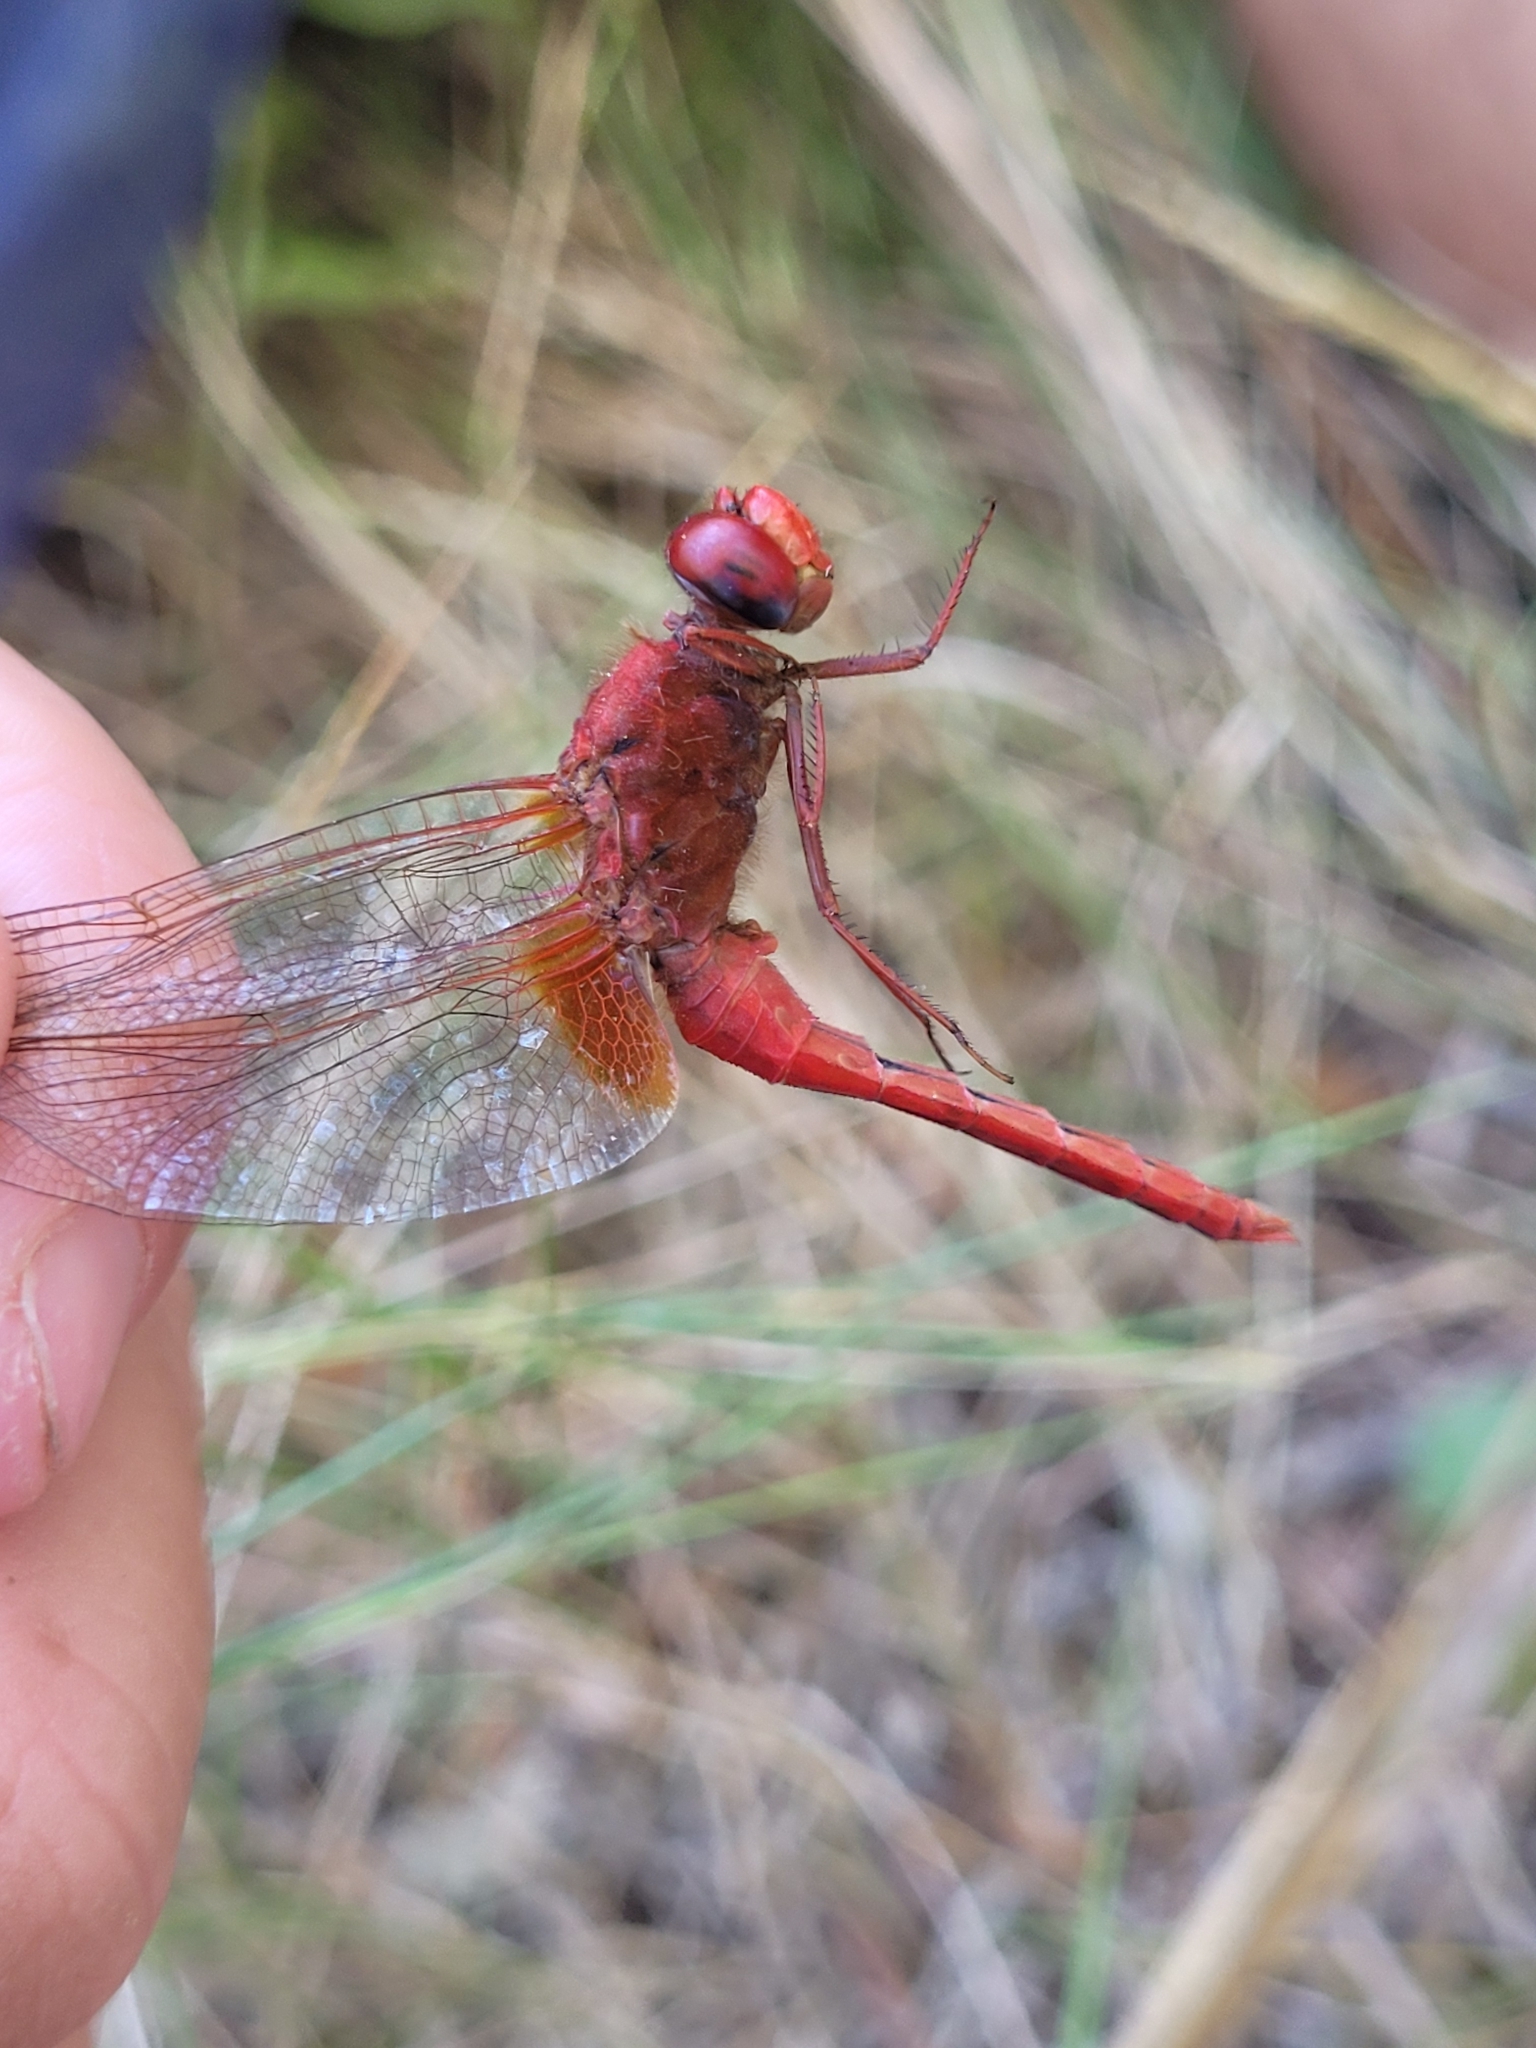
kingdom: Animalia
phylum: Arthropoda
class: Insecta
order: Odonata
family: Libellulidae
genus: Crocothemis
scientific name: Crocothemis erythraea
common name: Scarlet dragonfly
